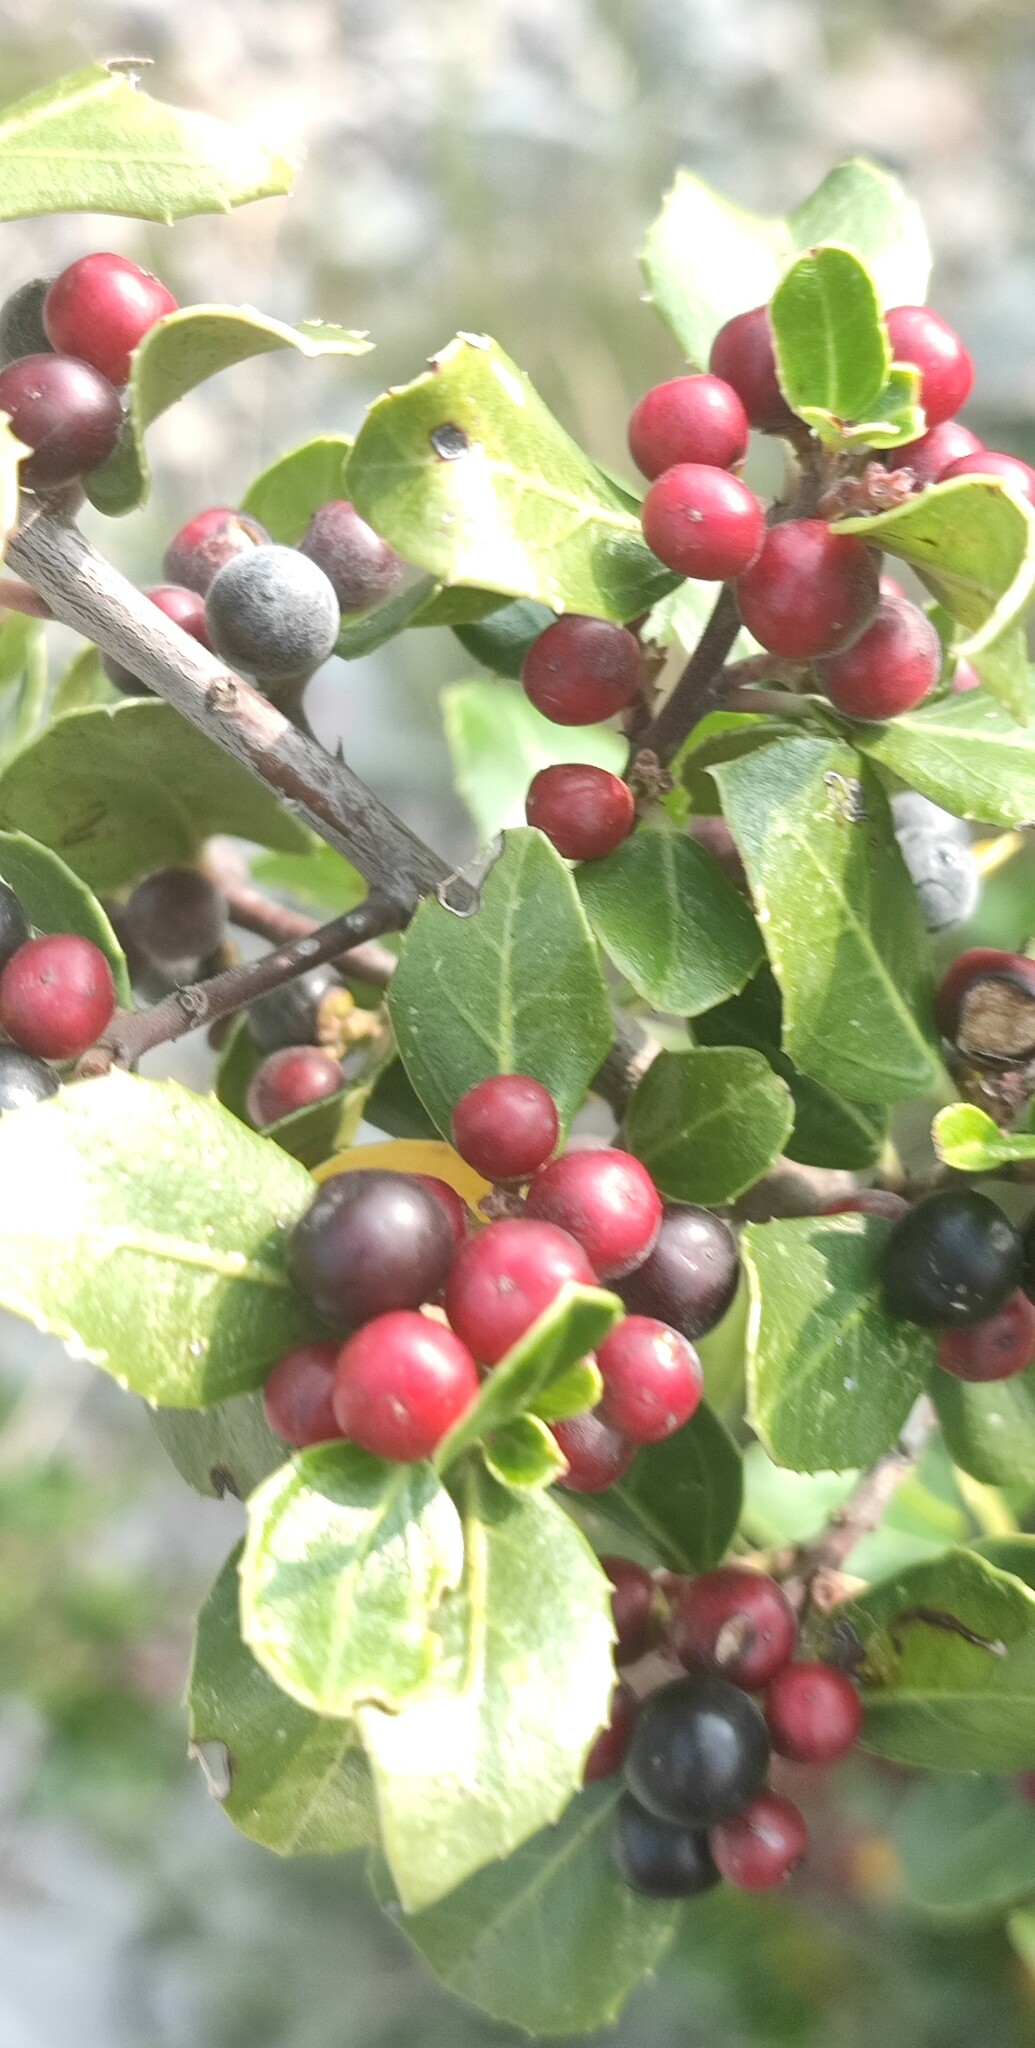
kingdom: Plantae
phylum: Tracheophyta
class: Magnoliopsida
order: Rosales
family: Rhamnaceae
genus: Rhamnus
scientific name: Rhamnus alaternus
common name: Mediterranean buckthorn
